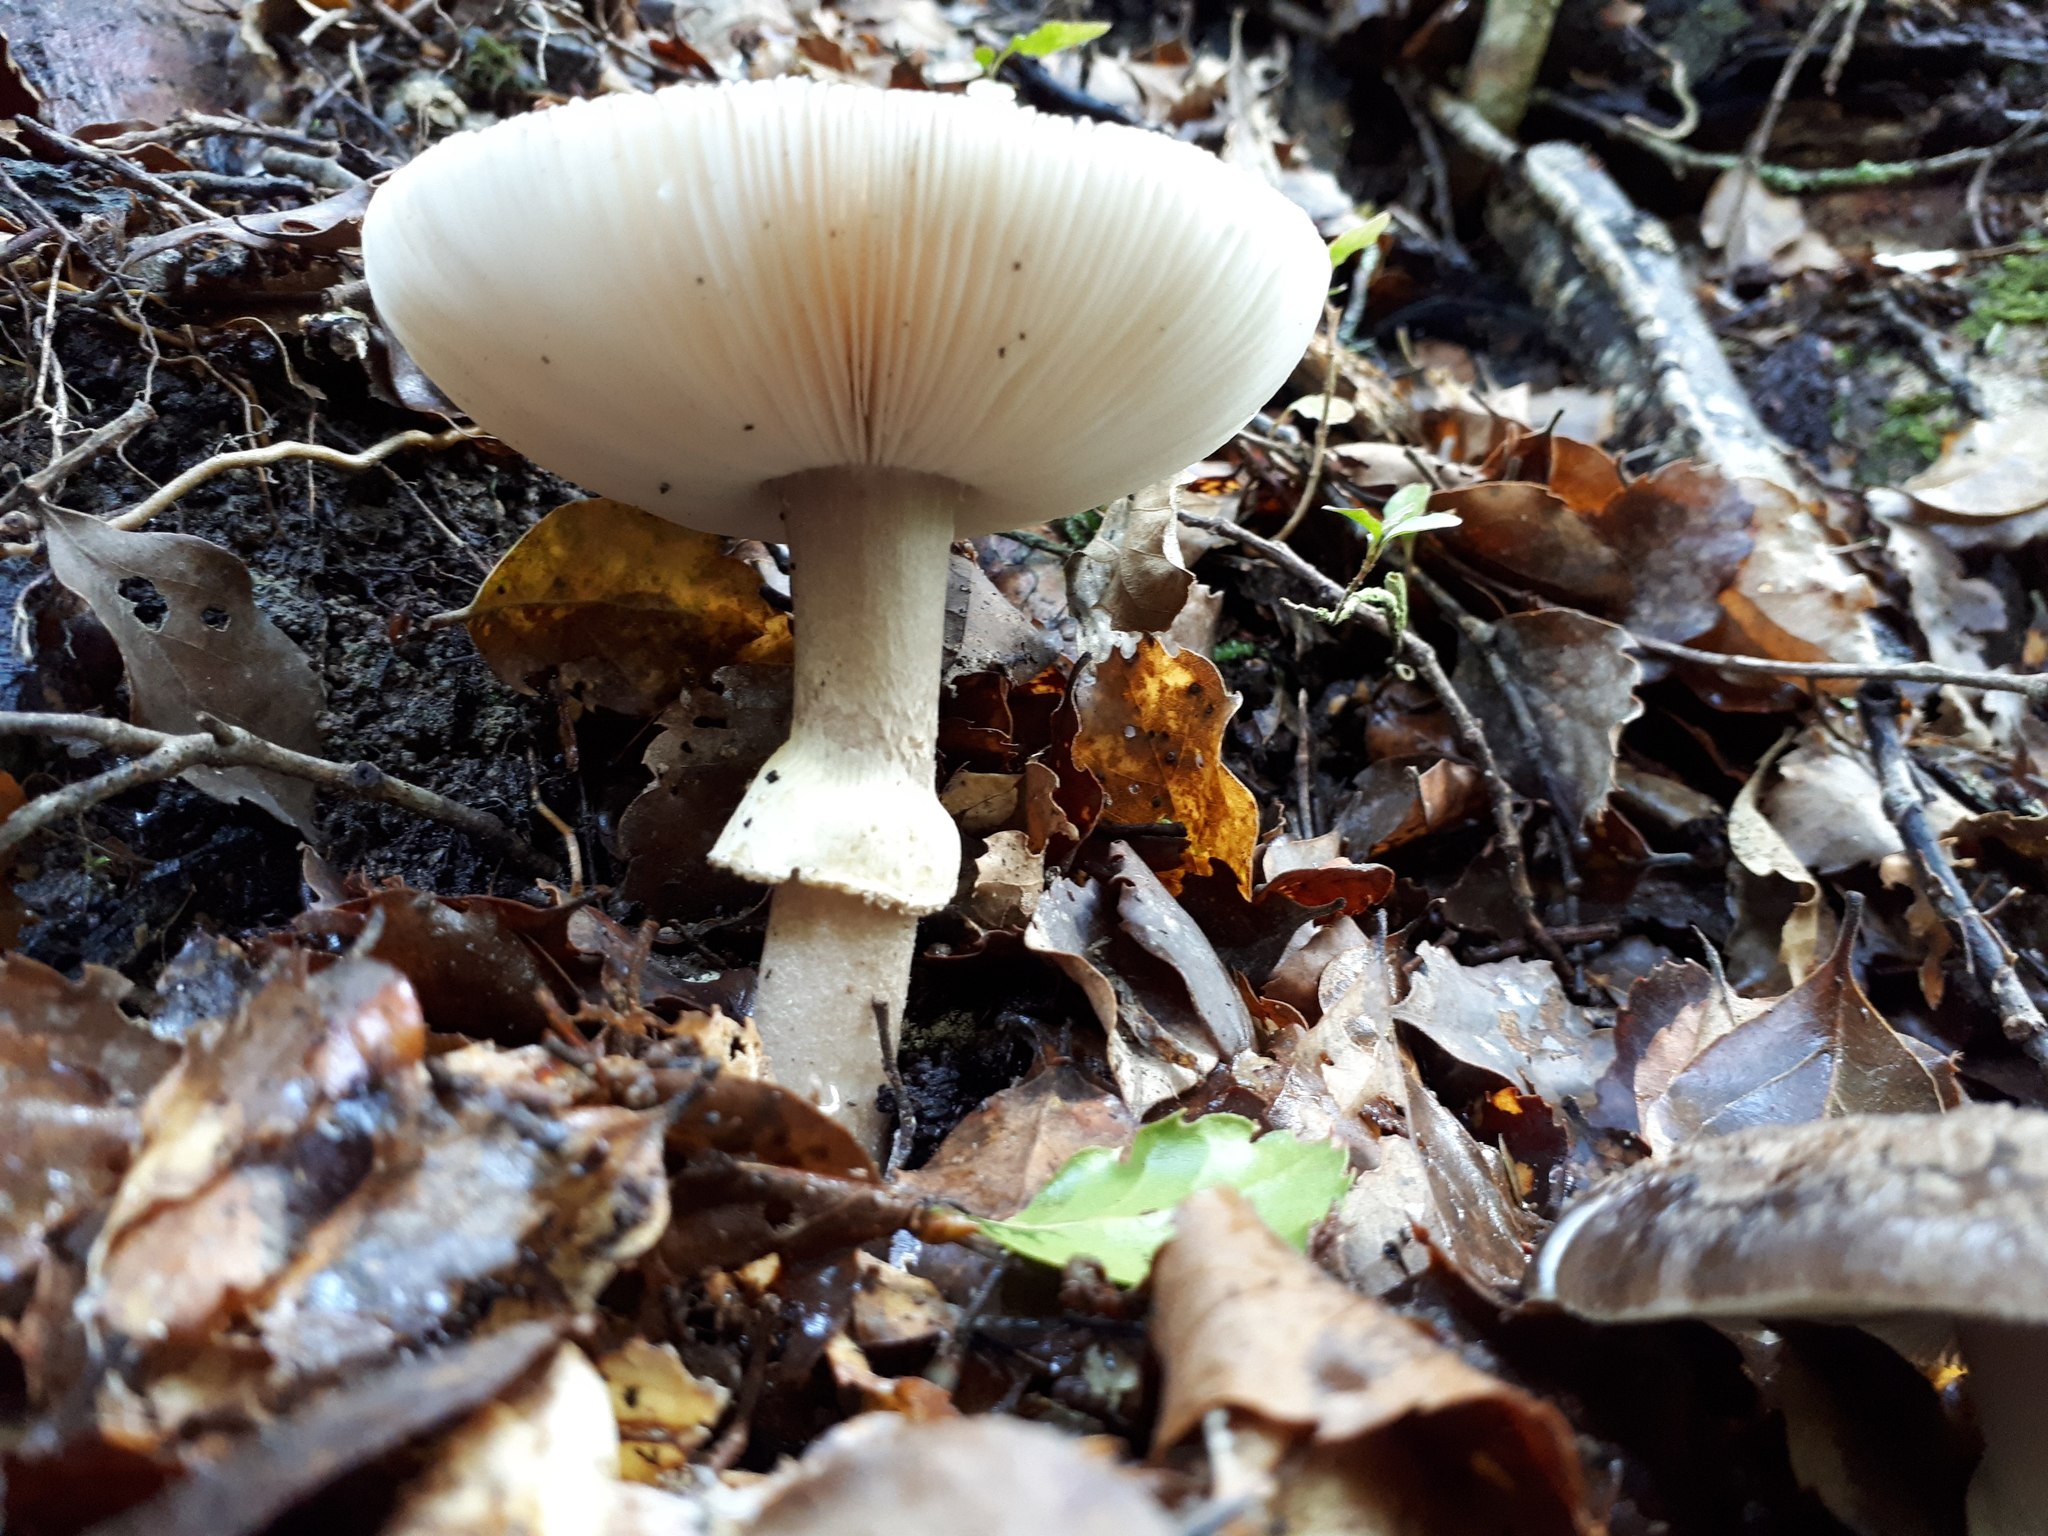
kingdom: Fungi
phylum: Basidiomycota
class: Agaricomycetes
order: Agaricales
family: Amanitaceae
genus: Amanita
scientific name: Amanita nothofagi
